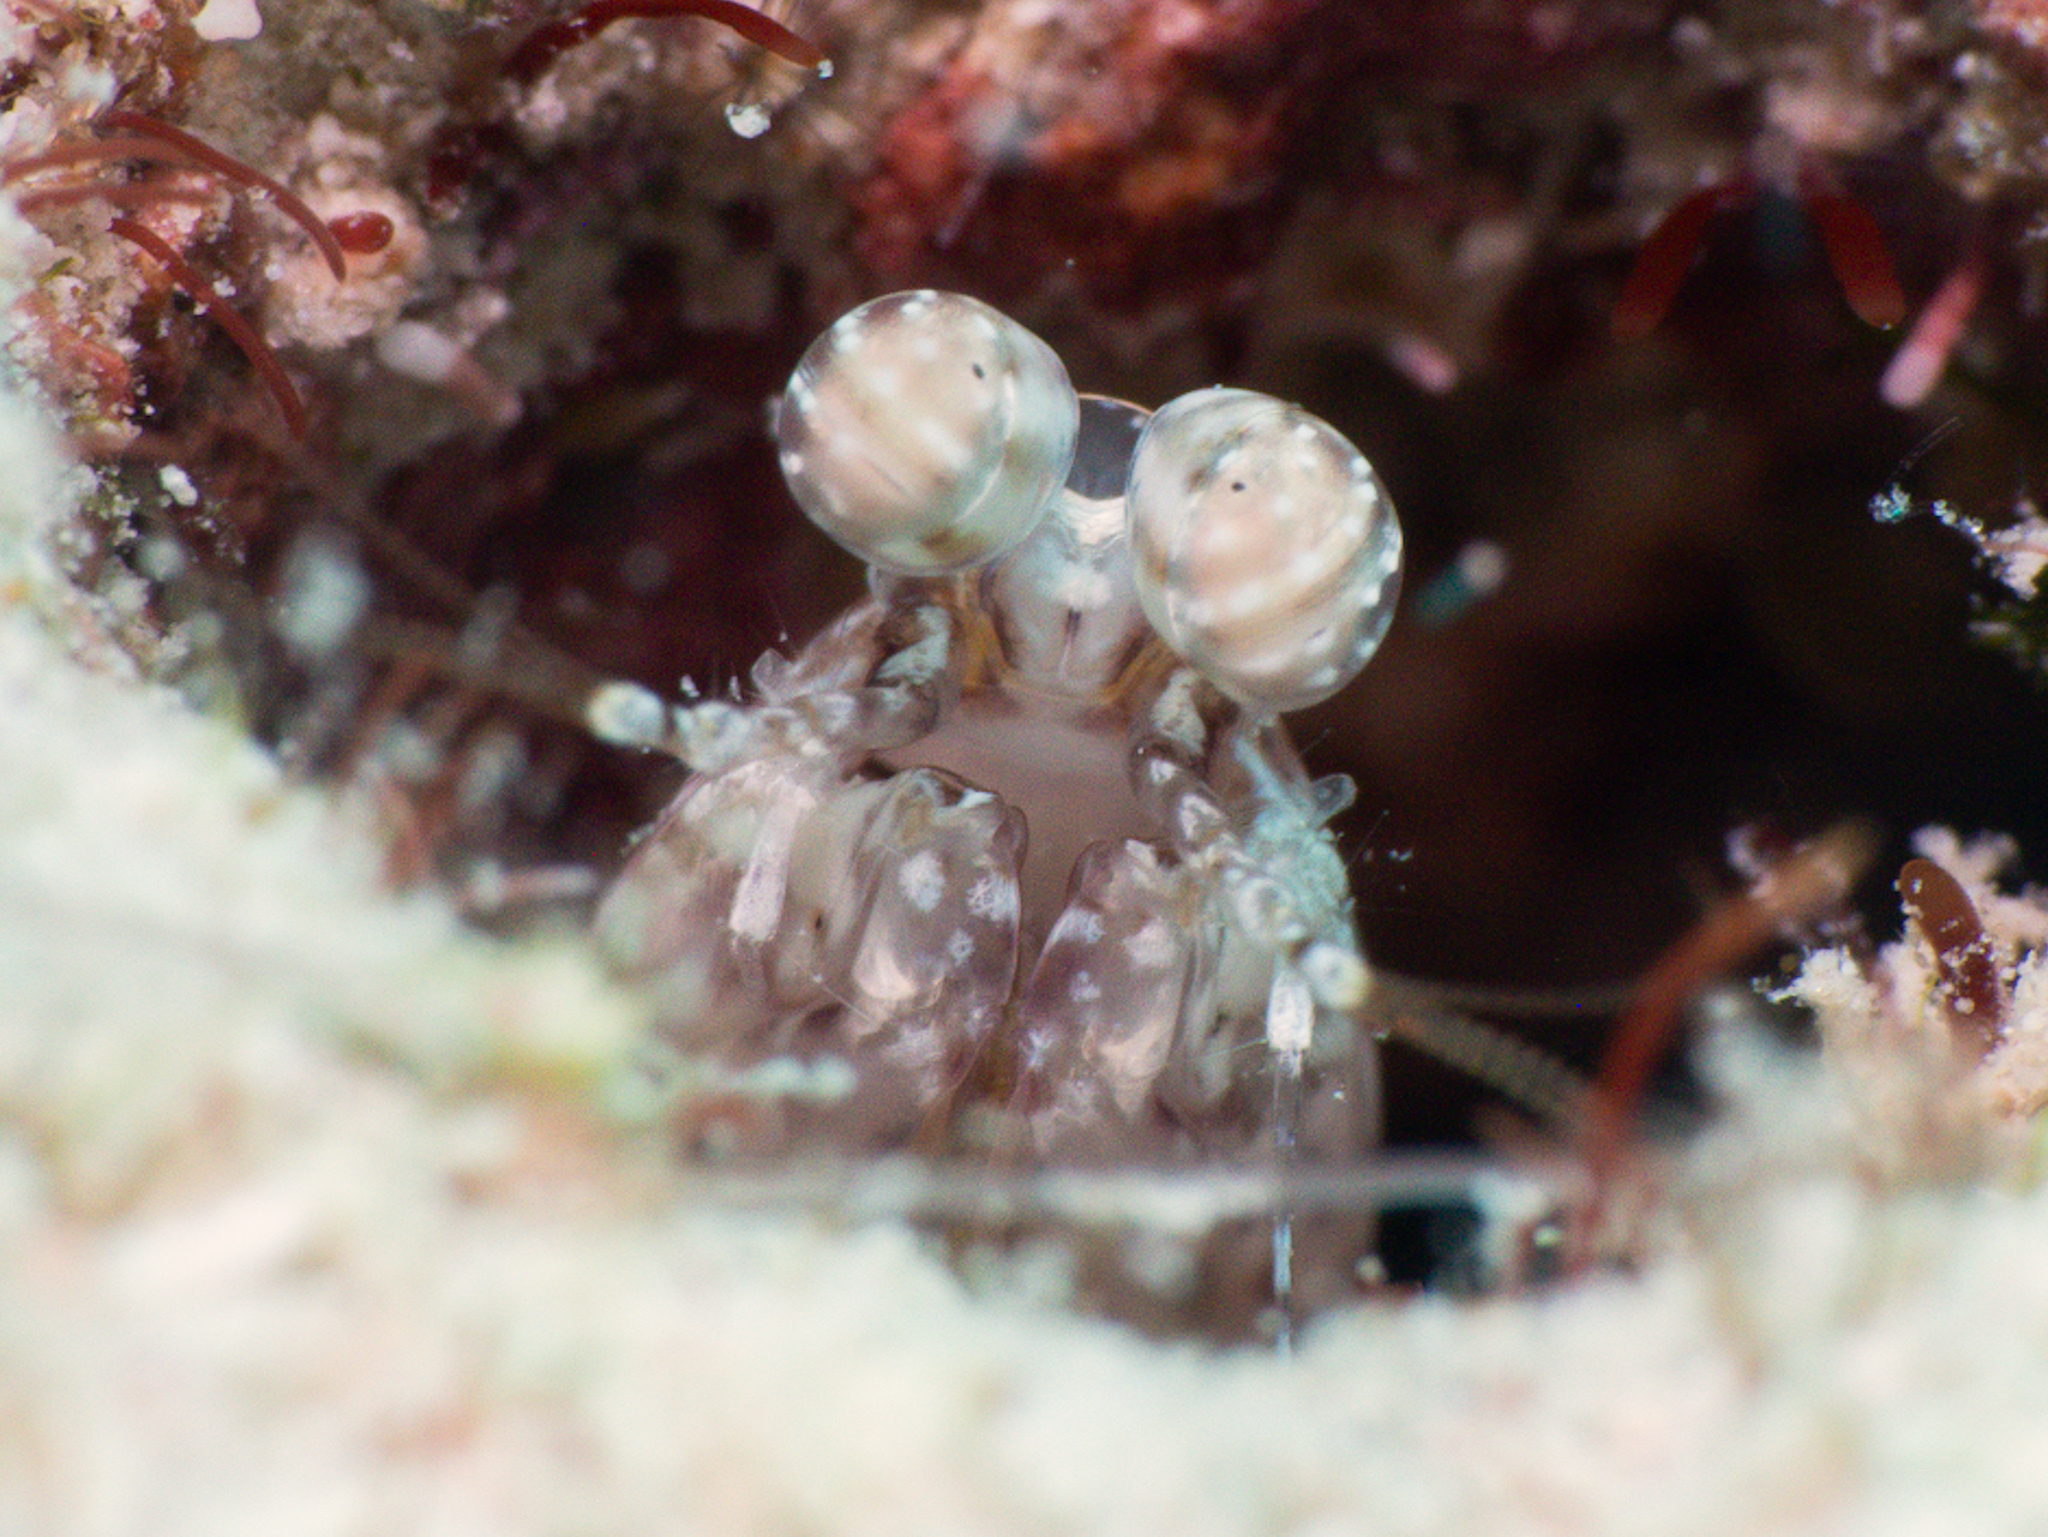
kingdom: Animalia
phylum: Arthropoda
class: Malacostraca
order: Stomatopoda
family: Pseudosquillidae
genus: Pseudosquilla
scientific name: Pseudosquilla ciliata
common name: Ciliated false squilla
